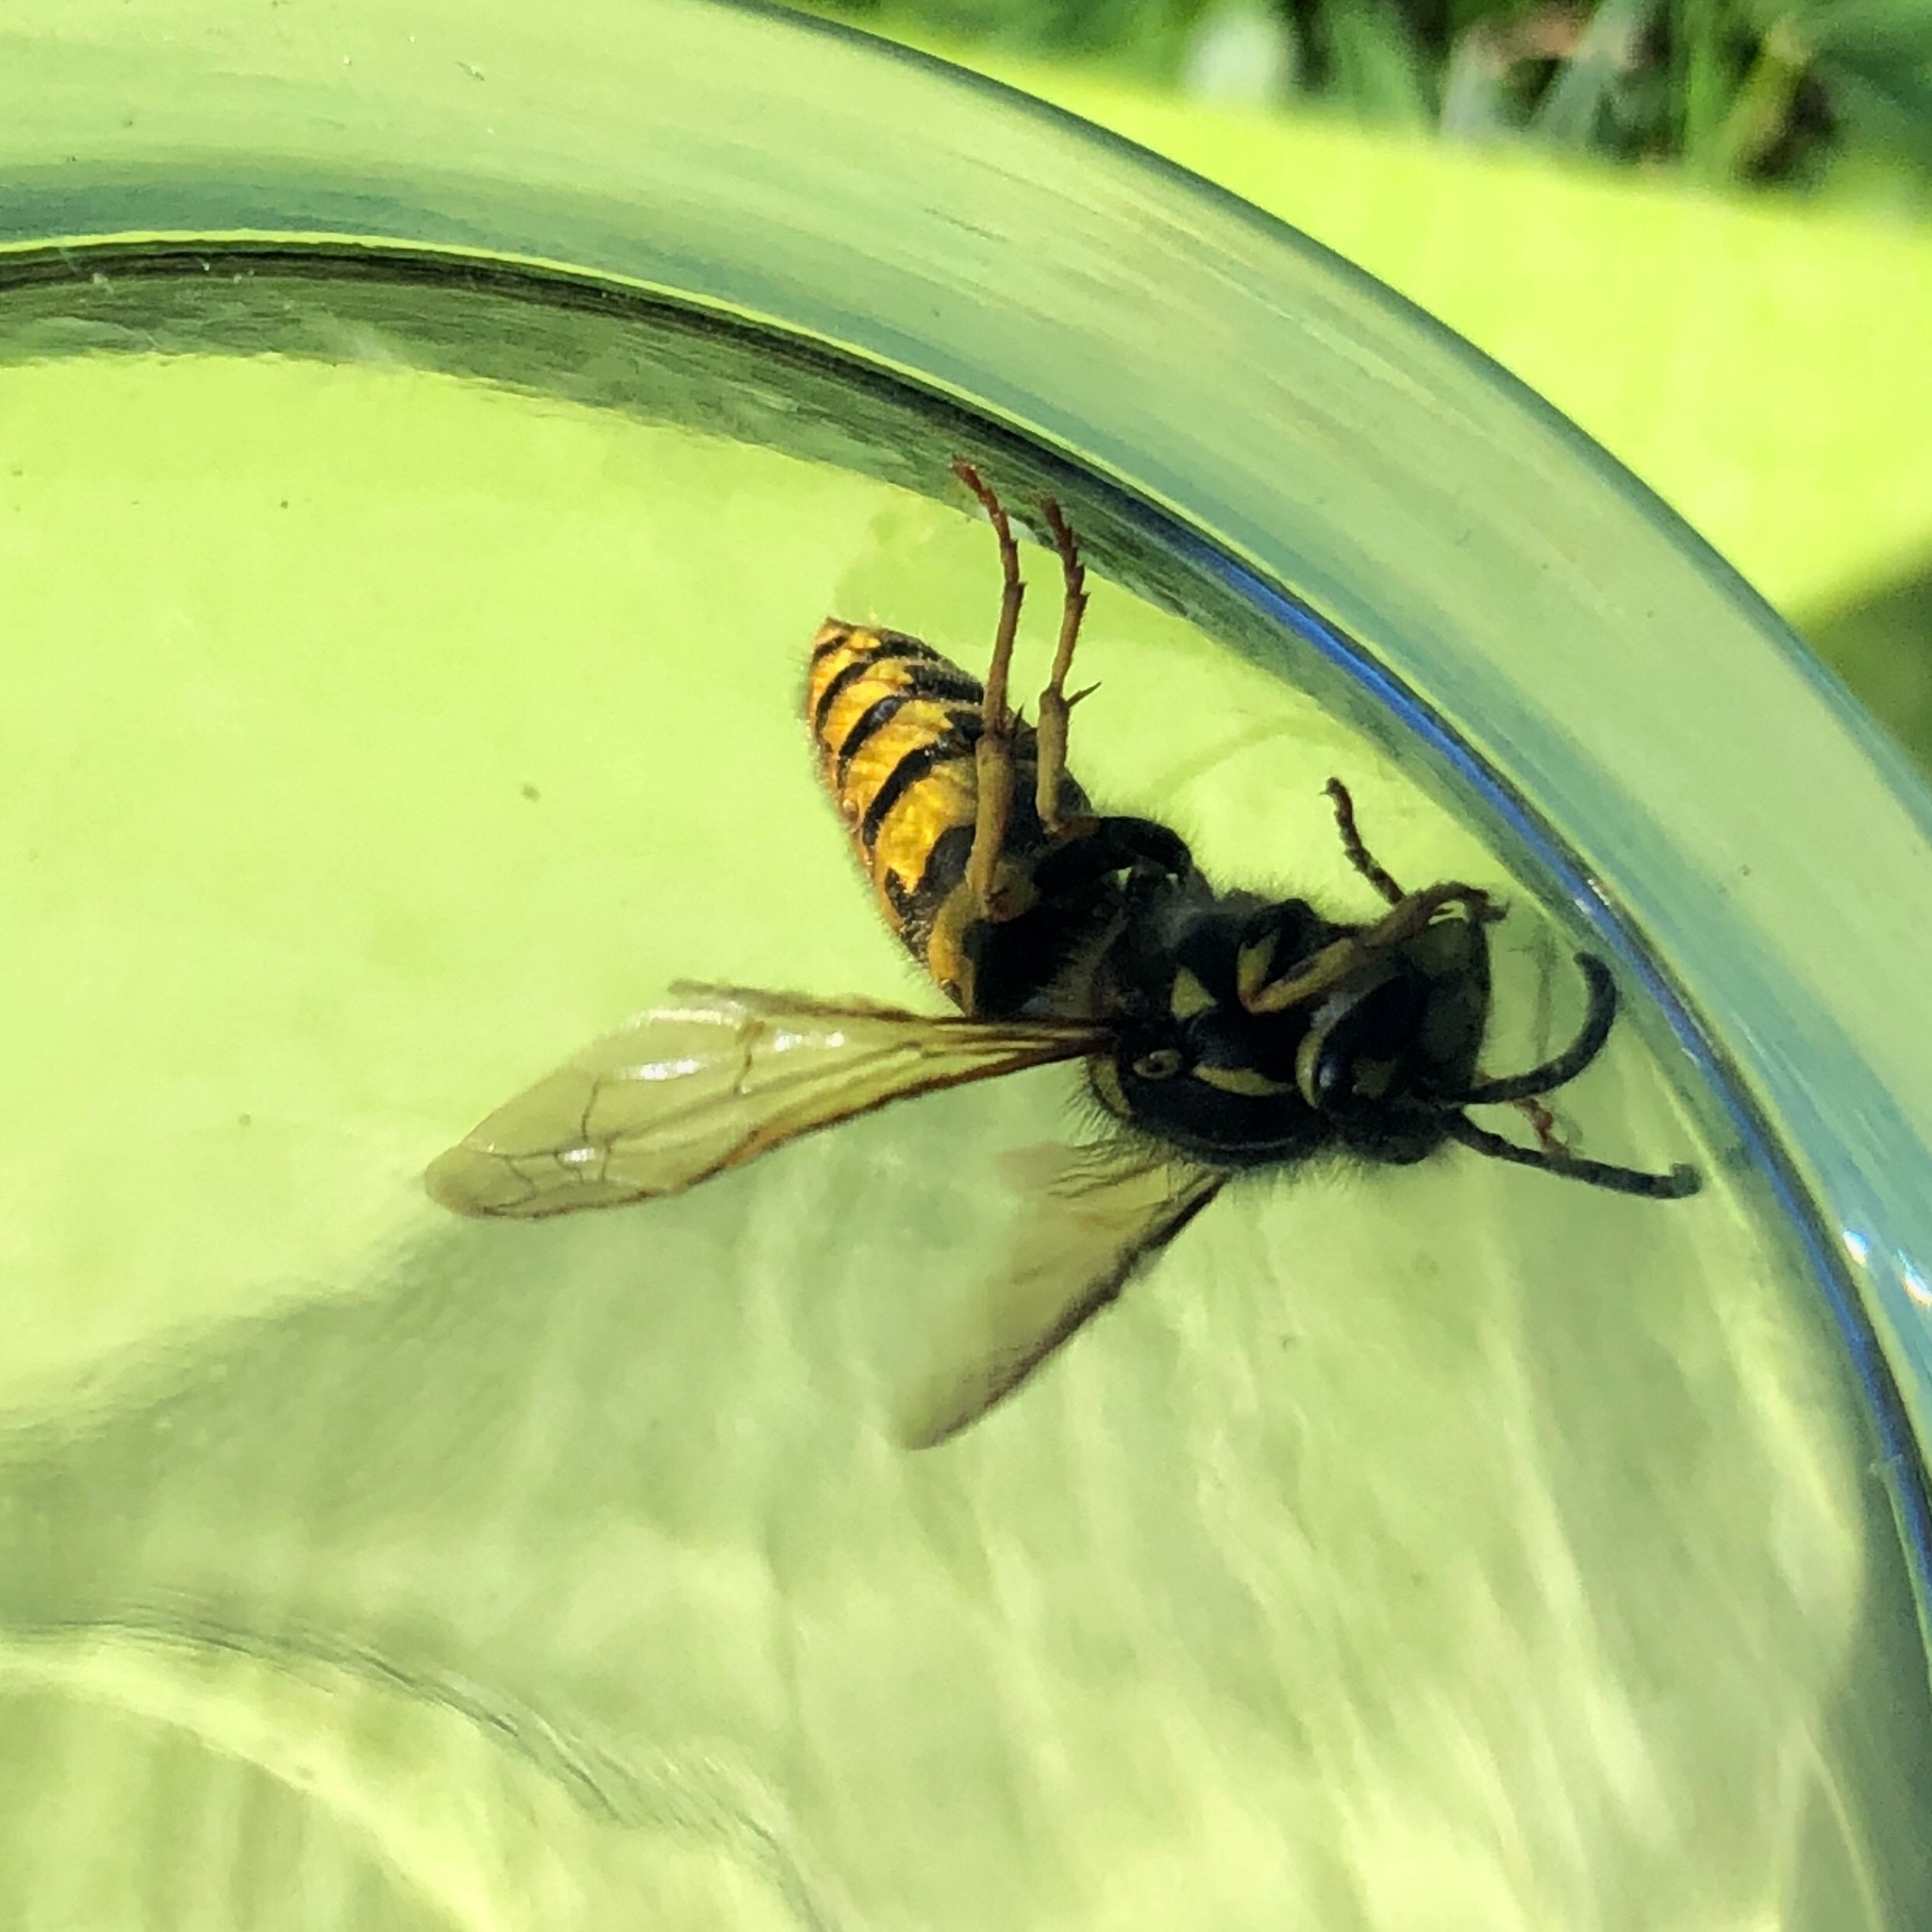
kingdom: Animalia
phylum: Arthropoda
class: Insecta
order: Hymenoptera
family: Vespidae
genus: Vespula
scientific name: Vespula germanica
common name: German wasp
